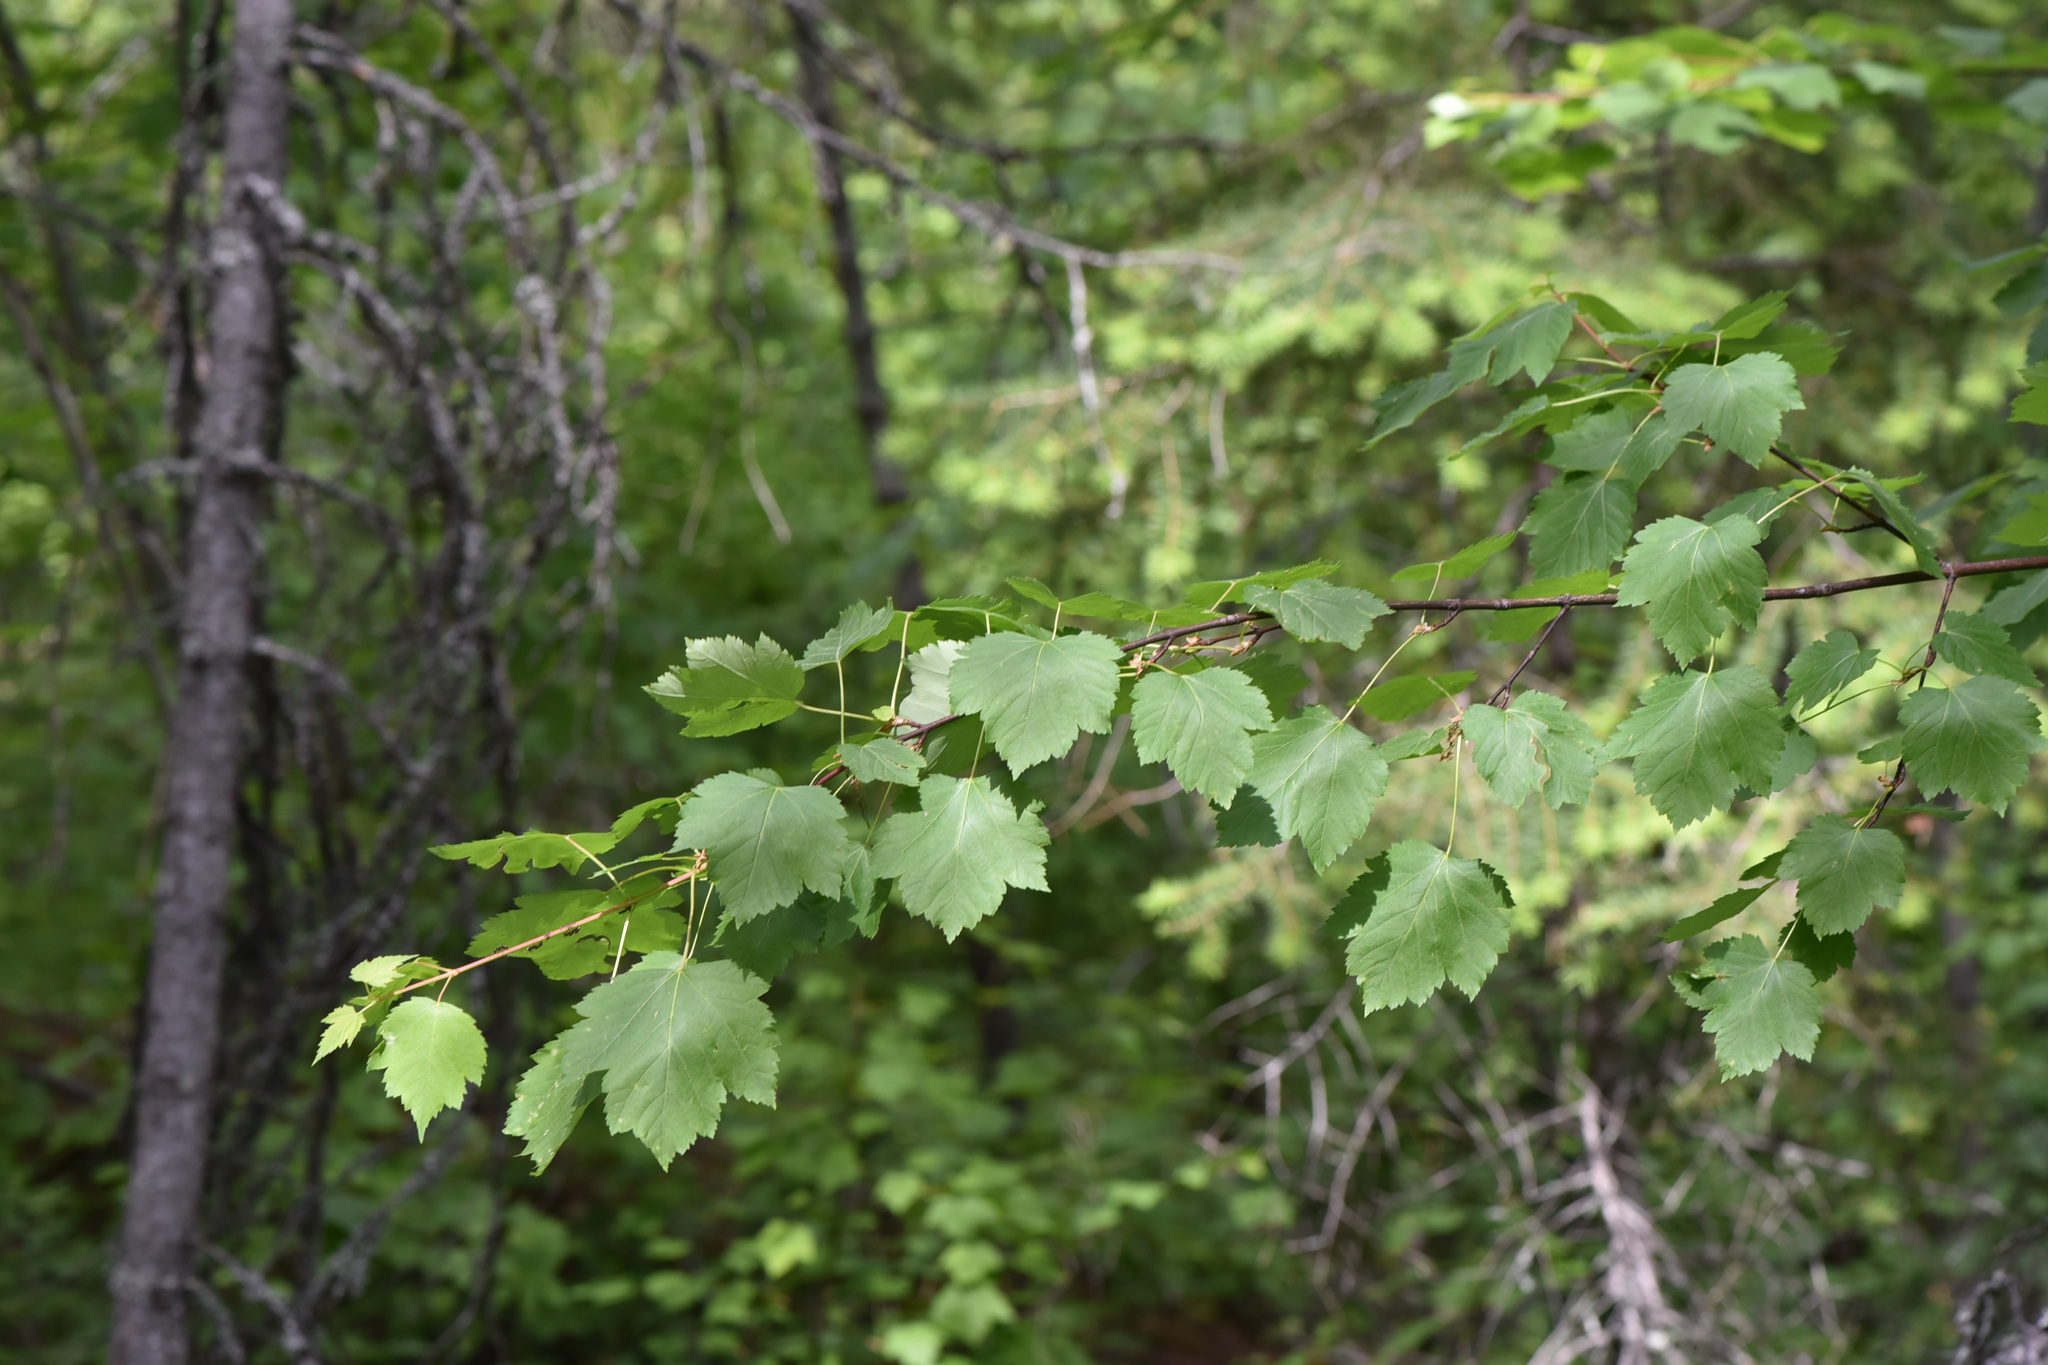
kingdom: Plantae
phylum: Tracheophyta
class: Magnoliopsida
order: Sapindales
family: Sapindaceae
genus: Acer
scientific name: Acer glabrum
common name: Rocky mountain maple
